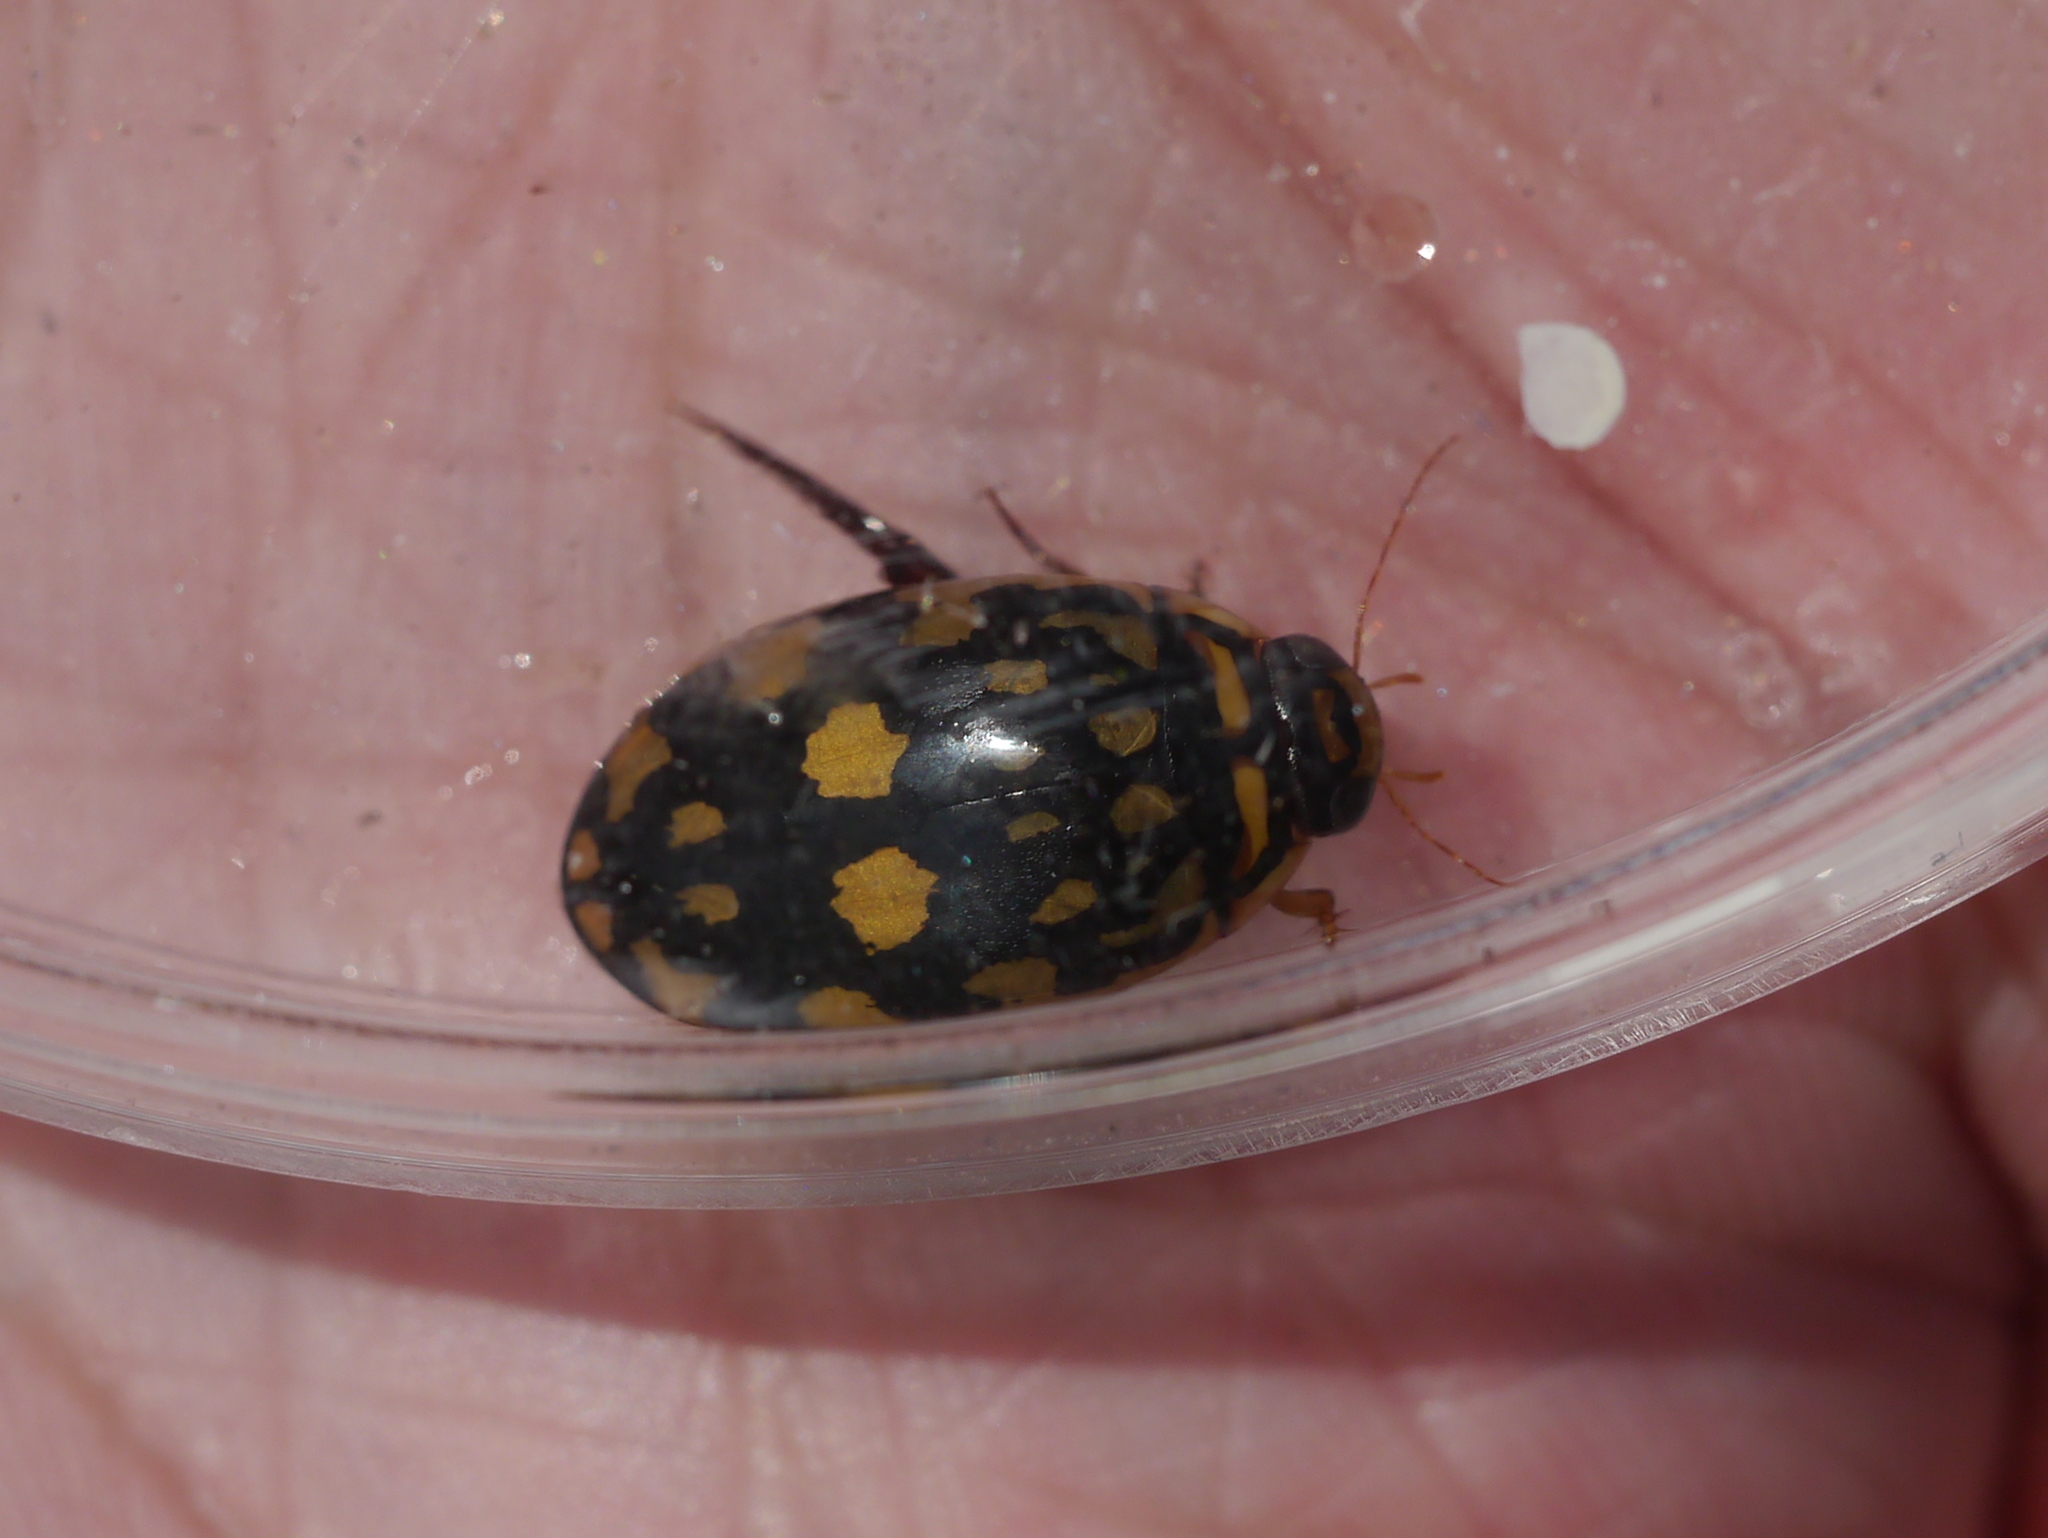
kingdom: Animalia
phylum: Arthropoda
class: Insecta
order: Coleoptera
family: Dytiscidae
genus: Thermonectus
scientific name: Thermonectus marmoratus
